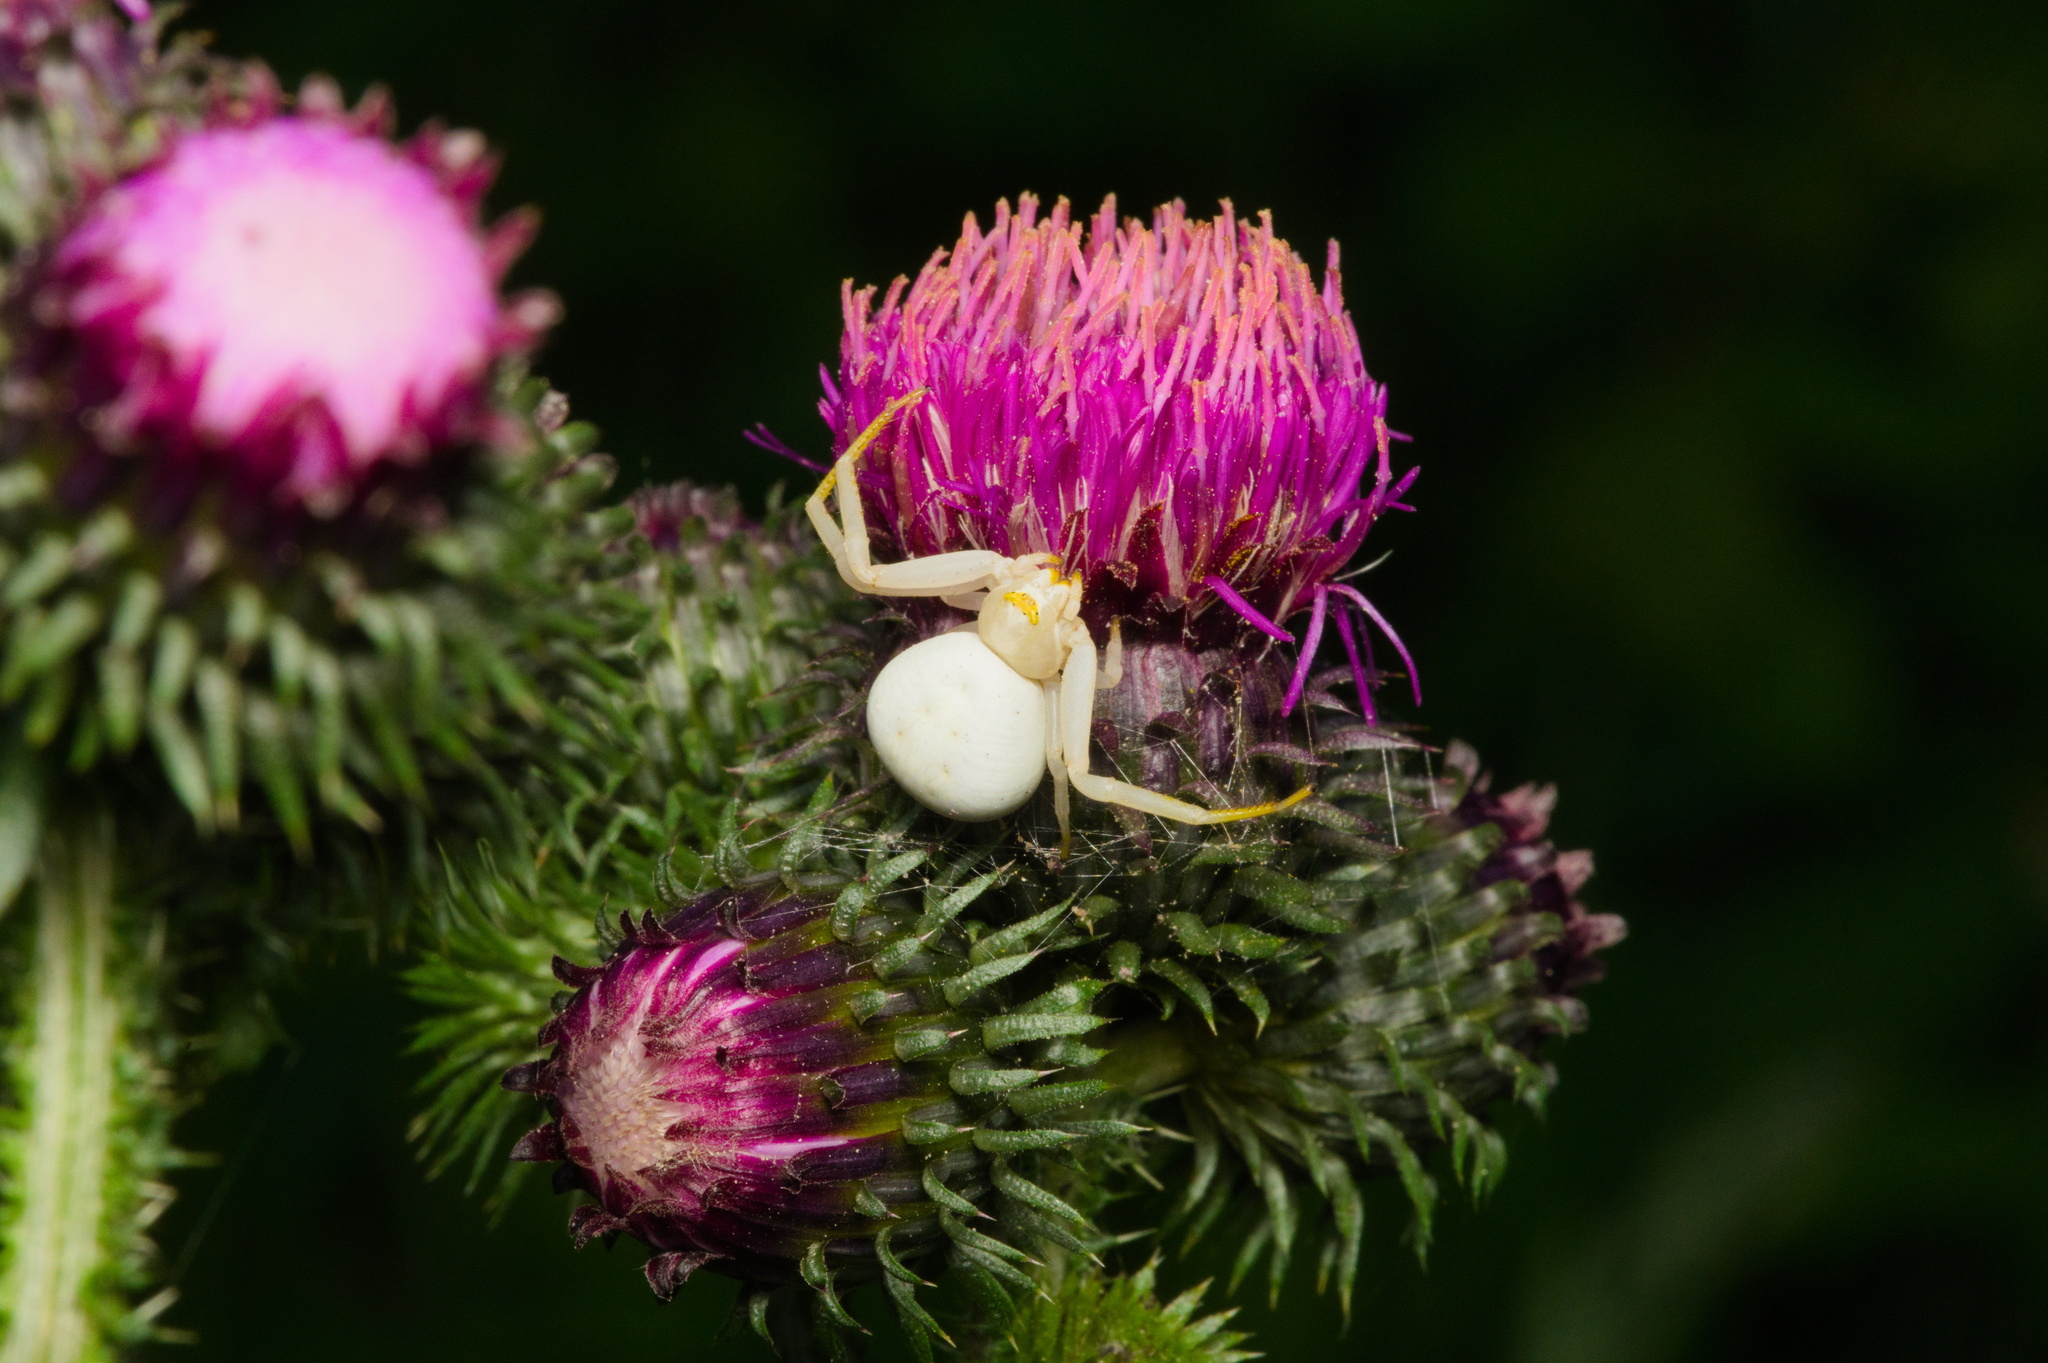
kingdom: Animalia
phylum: Arthropoda
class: Arachnida
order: Araneae
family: Thomisidae
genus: Misumena
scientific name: Misumena vatia
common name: Goldenrod crab spider
